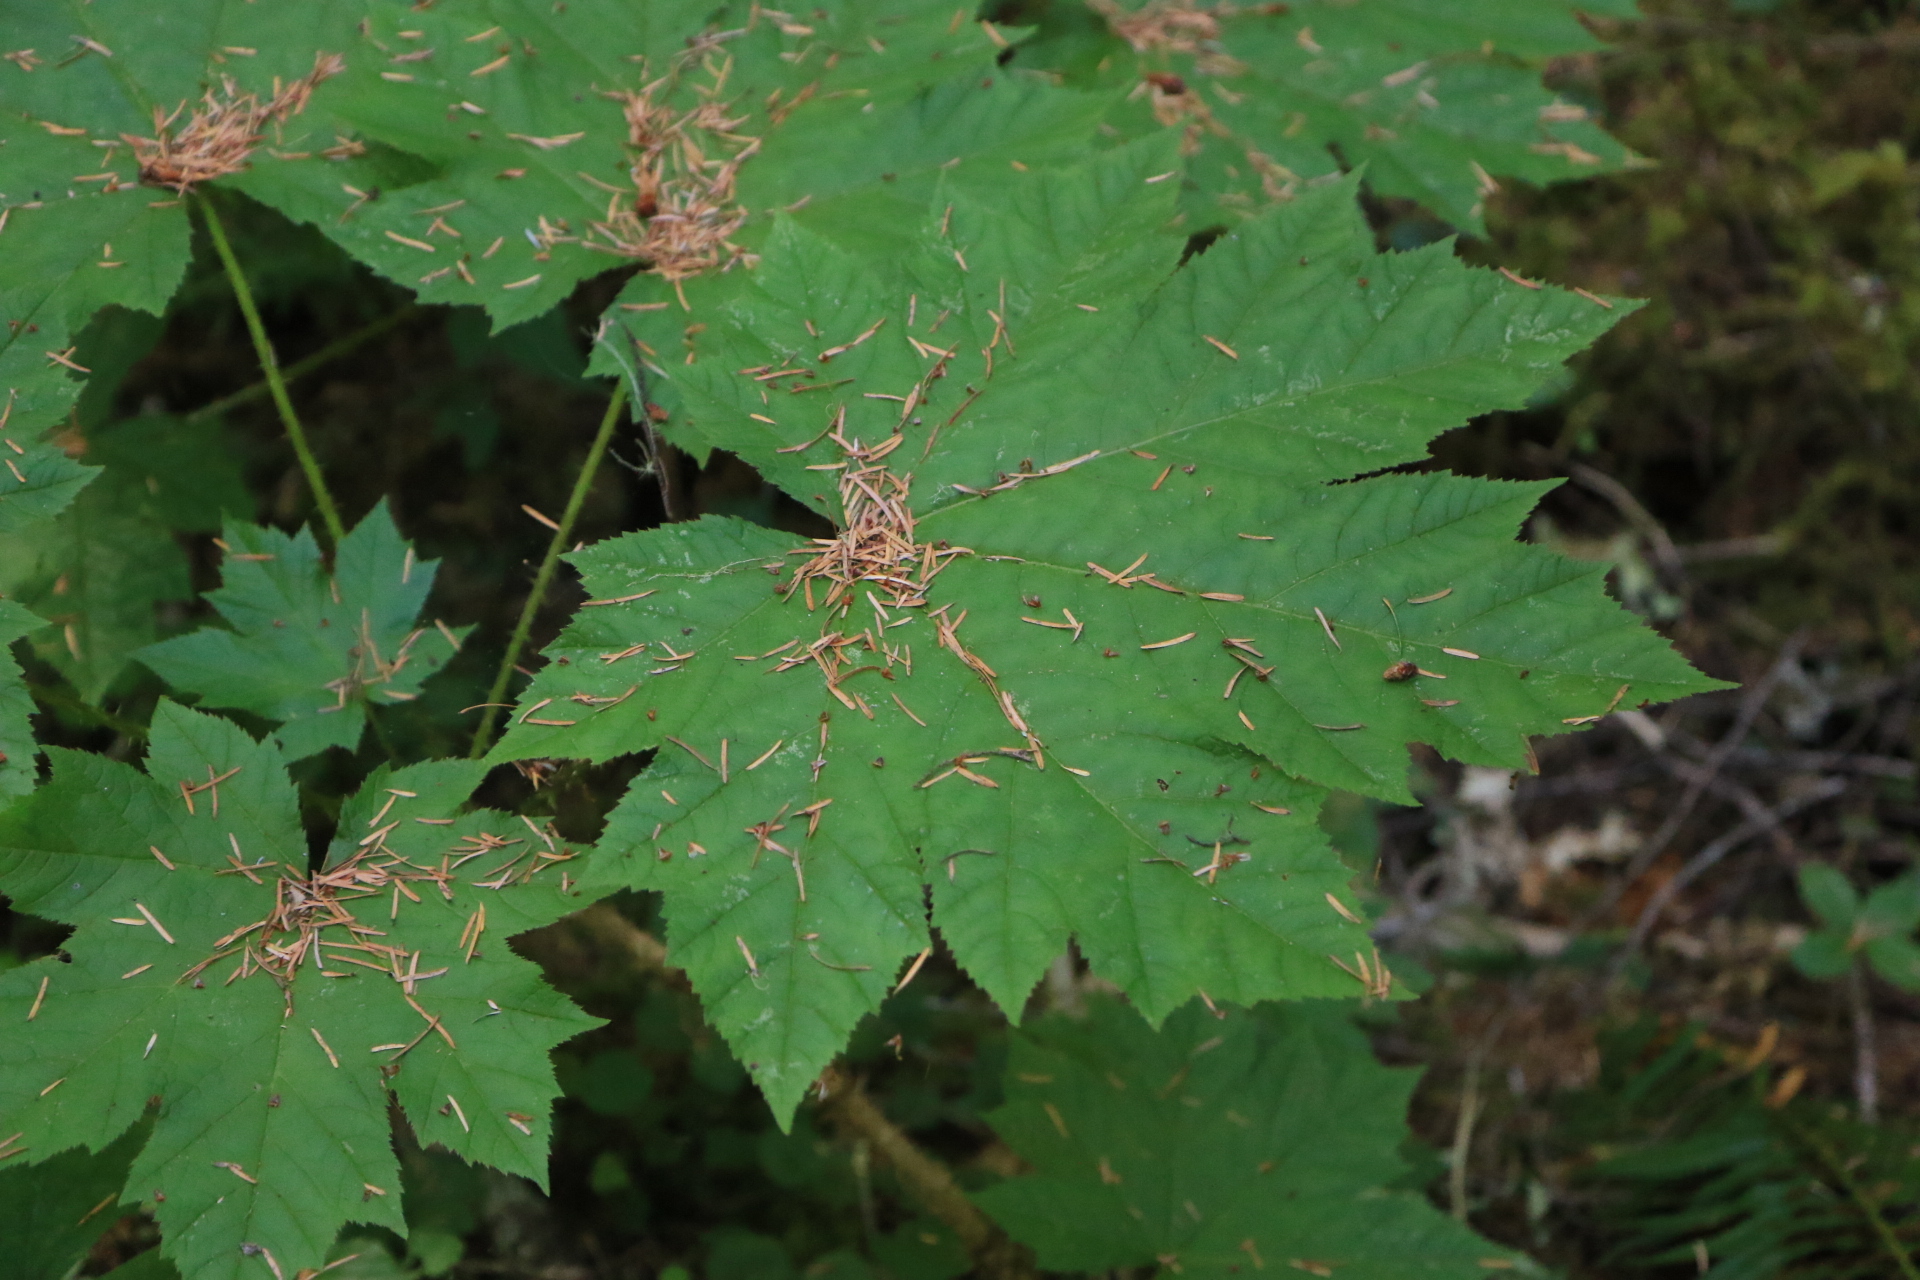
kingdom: Plantae
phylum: Tracheophyta
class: Magnoliopsida
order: Apiales
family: Araliaceae
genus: Oplopanax
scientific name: Oplopanax horridus
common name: Devil's walking-stick
